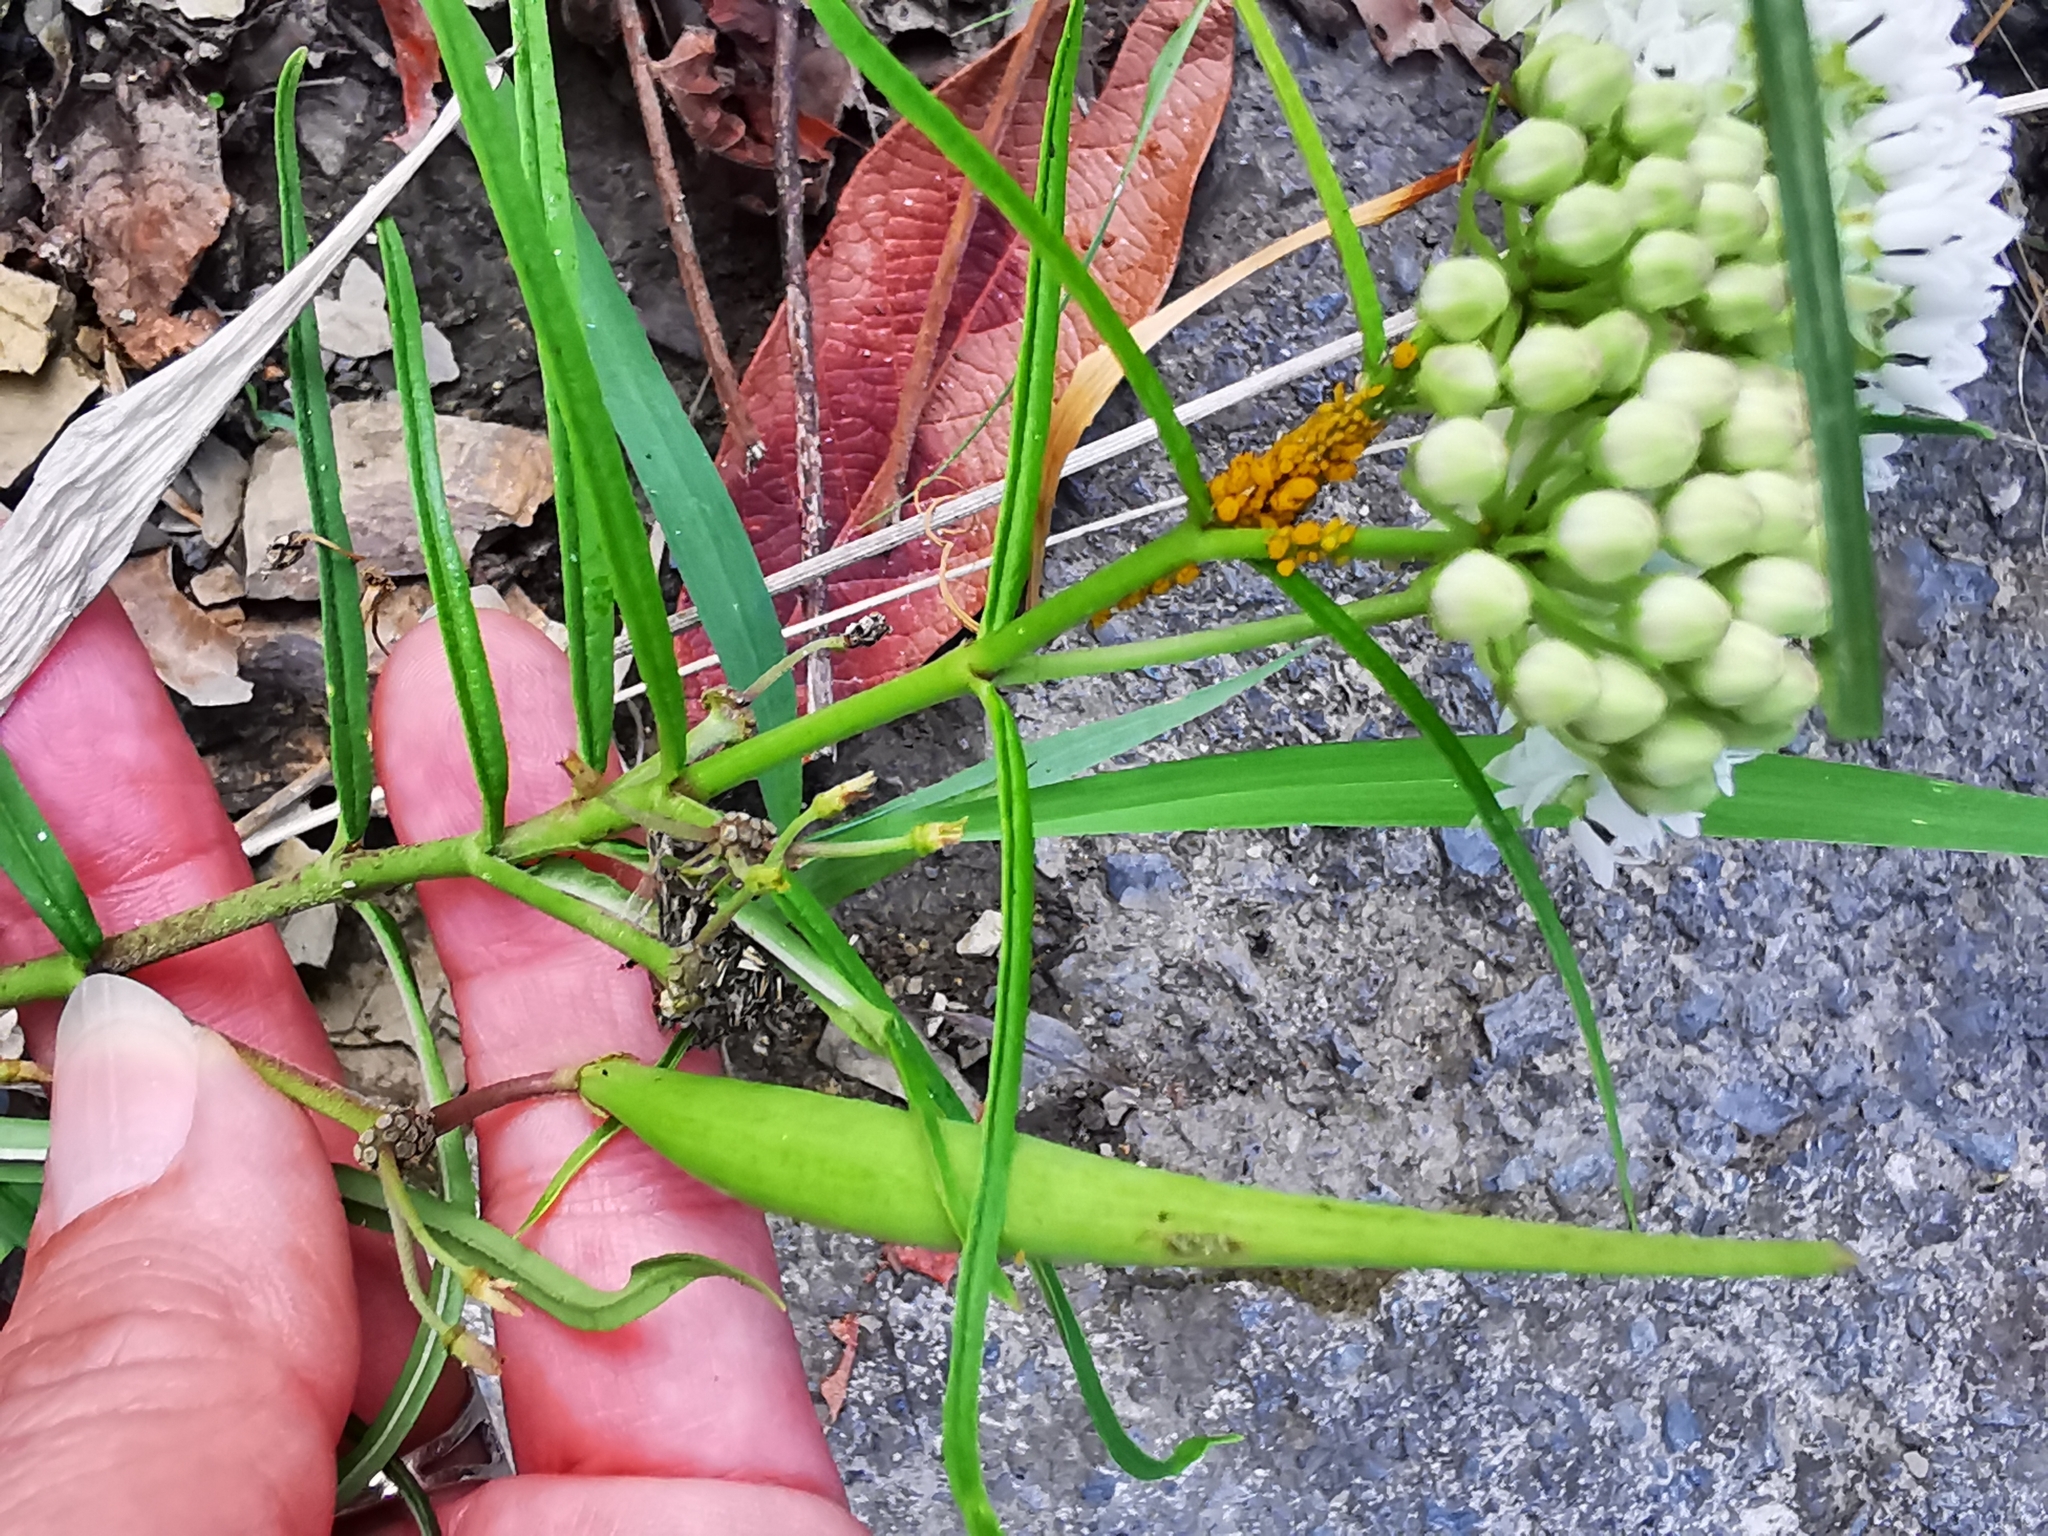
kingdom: Plantae
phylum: Tracheophyta
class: Magnoliopsida
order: Gentianales
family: Apocynaceae
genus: Asclepias
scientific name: Asclepias angustifolia
